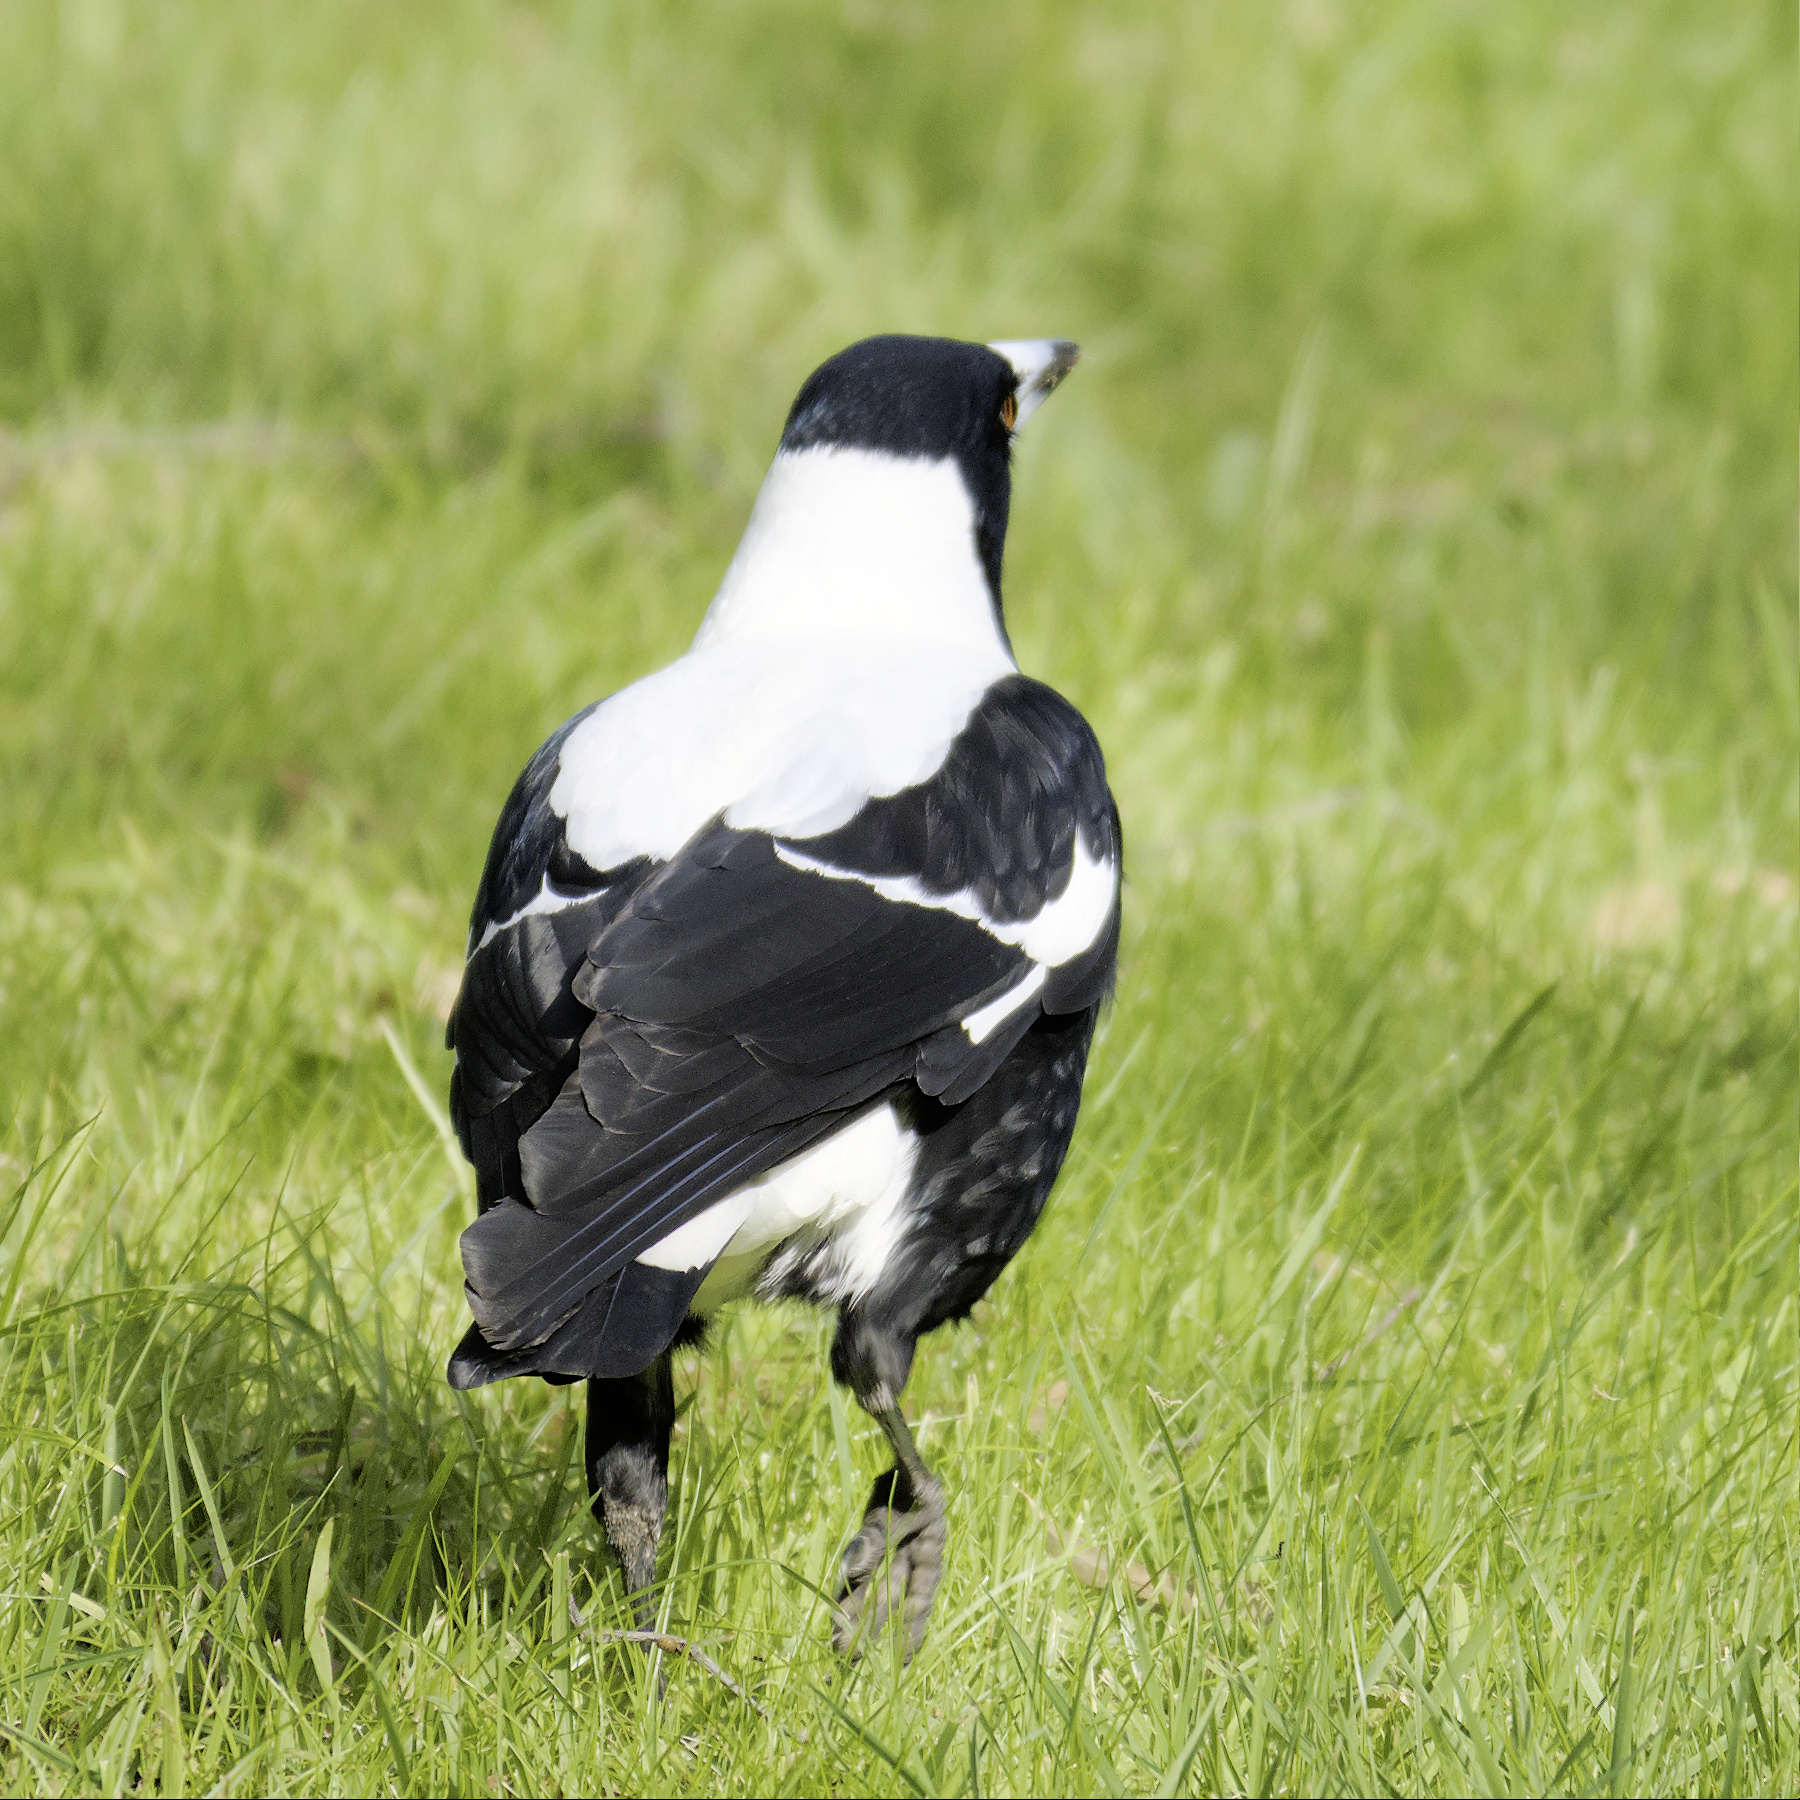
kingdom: Animalia
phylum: Chordata
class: Aves
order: Passeriformes
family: Cracticidae
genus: Gymnorhina
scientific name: Gymnorhina tibicen
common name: Australian magpie
